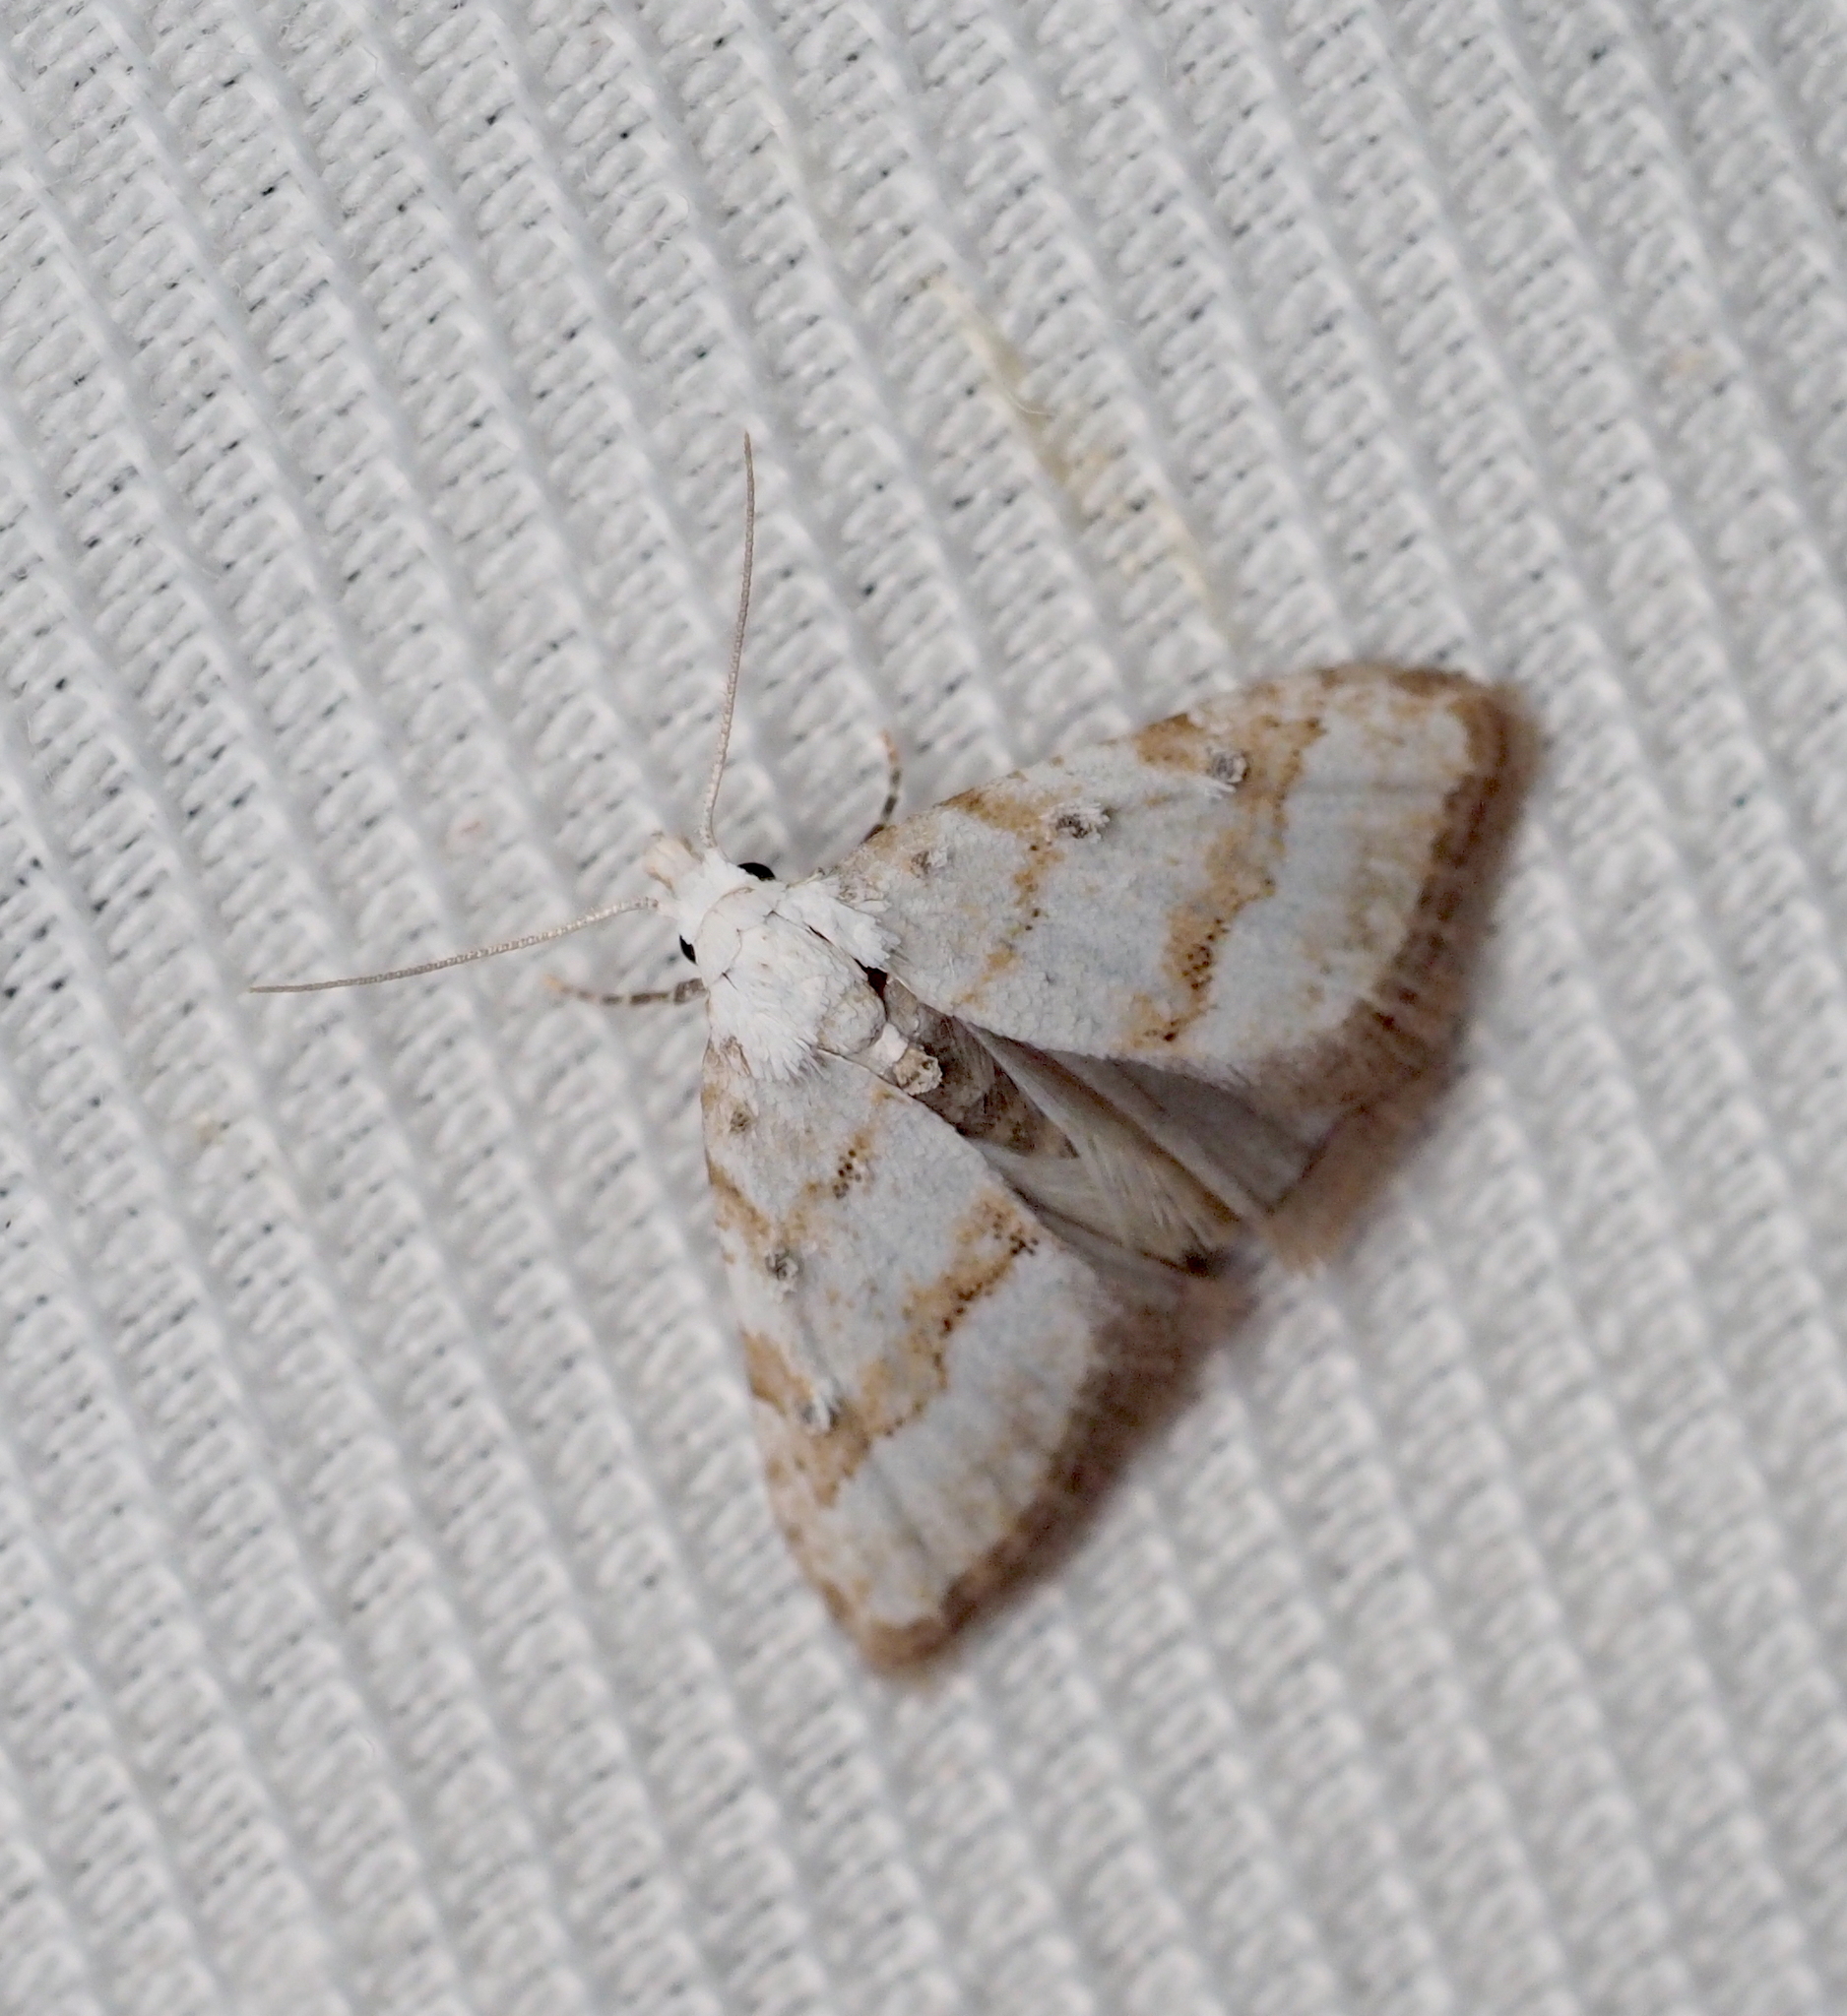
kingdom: Animalia
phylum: Arthropoda
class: Insecta
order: Lepidoptera
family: Nolidae
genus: Nola
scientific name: Nola aerugula
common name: Scarce black arches
